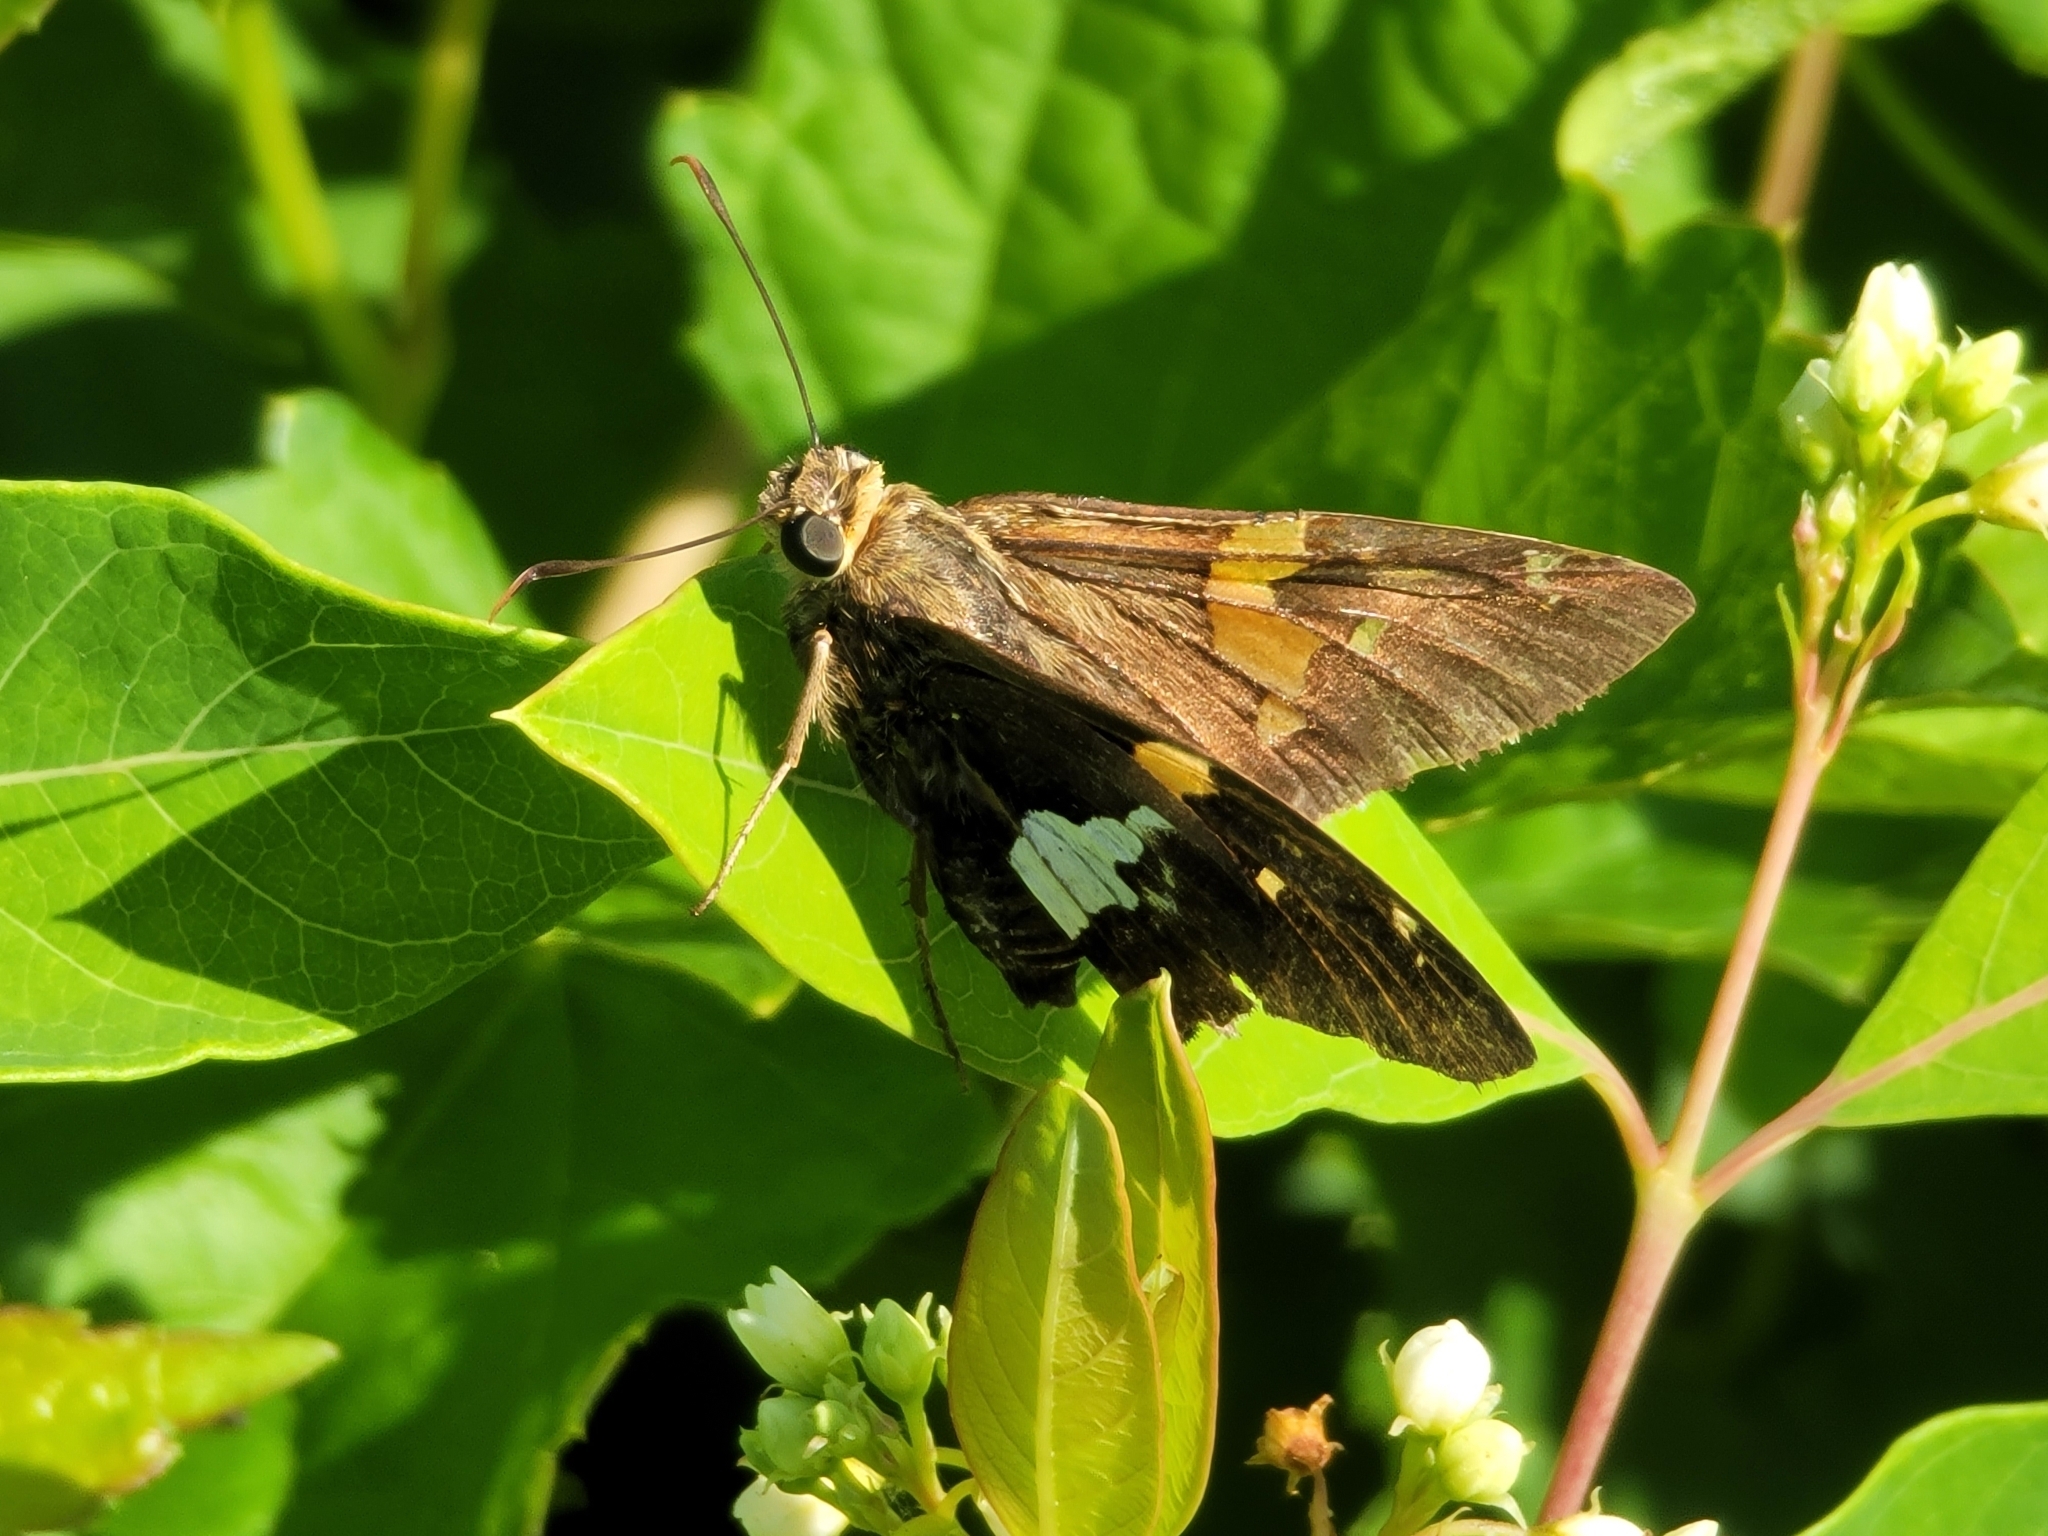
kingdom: Animalia
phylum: Arthropoda
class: Insecta
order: Lepidoptera
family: Hesperiidae
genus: Epargyreus
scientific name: Epargyreus clarus
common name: Silver-spotted skipper
